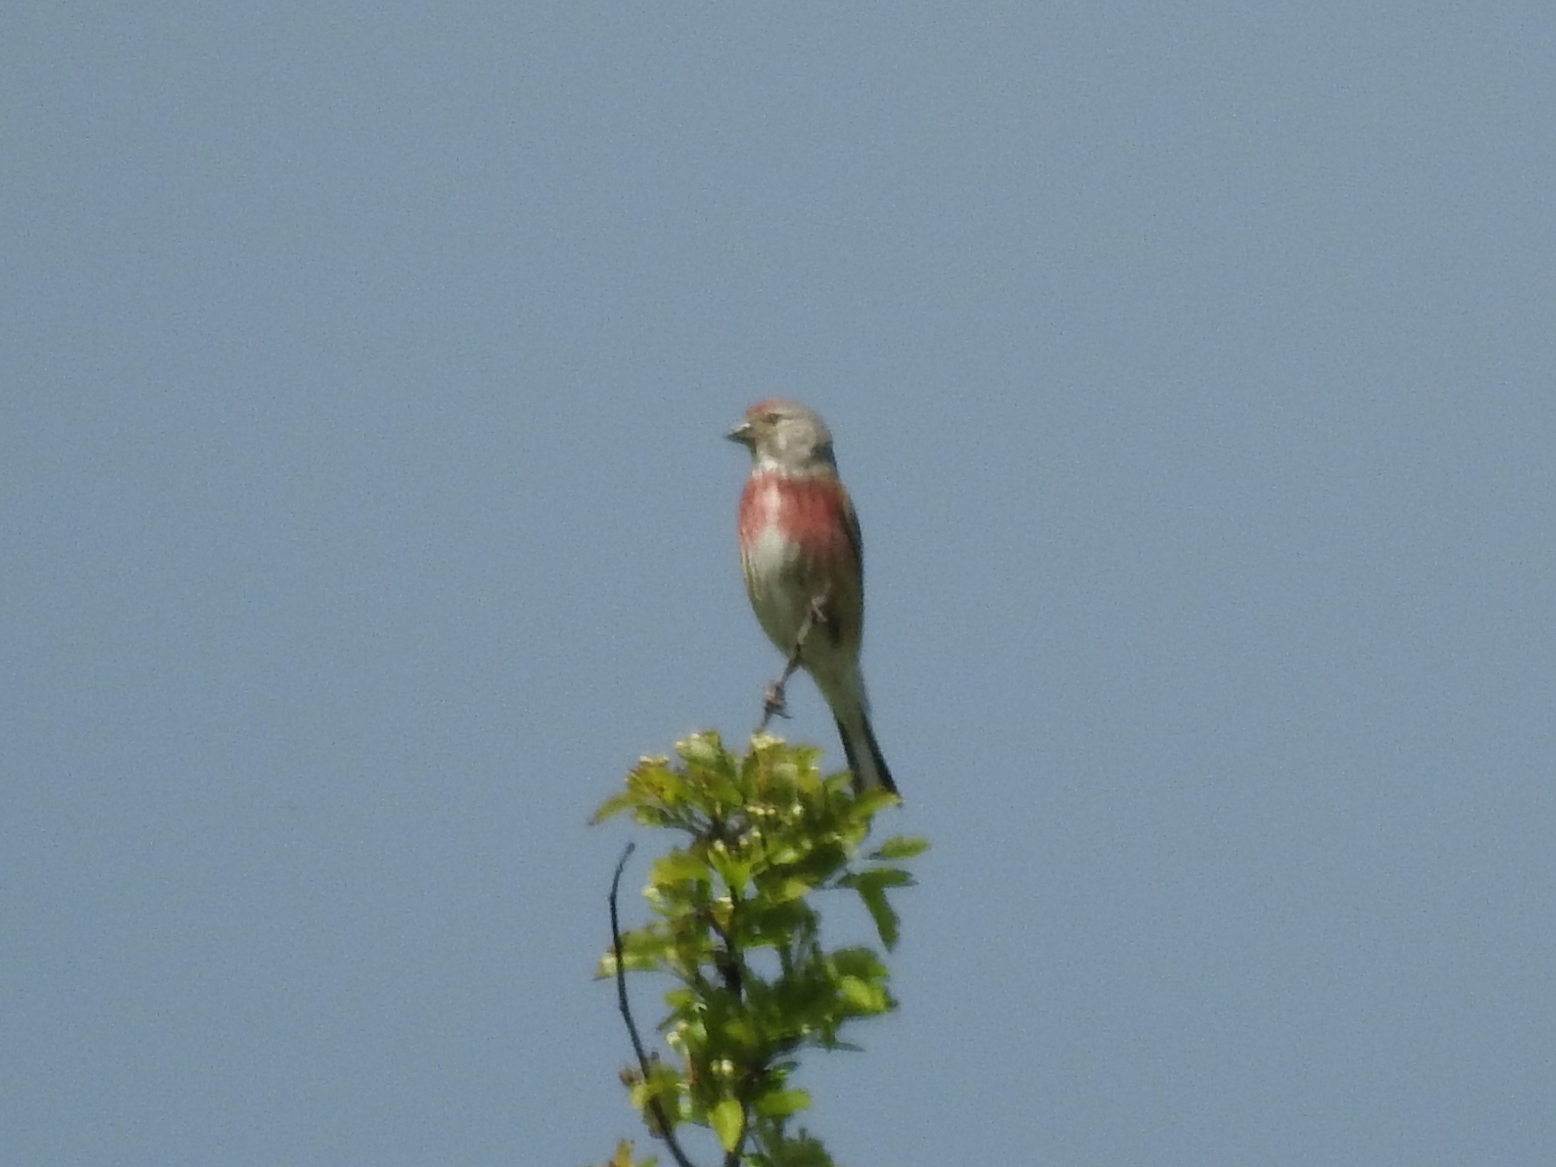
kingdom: Animalia
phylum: Chordata
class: Aves
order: Passeriformes
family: Fringillidae
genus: Linaria
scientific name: Linaria cannabina
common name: Common linnet
